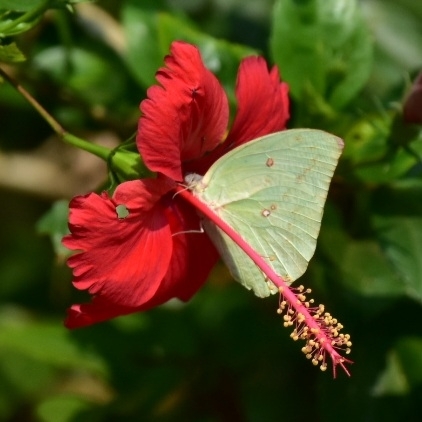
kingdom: Animalia
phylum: Arthropoda
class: Insecta
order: Lepidoptera
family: Pieridae
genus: Catopsilia
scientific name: Catopsilia pomona
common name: Common emigrant
